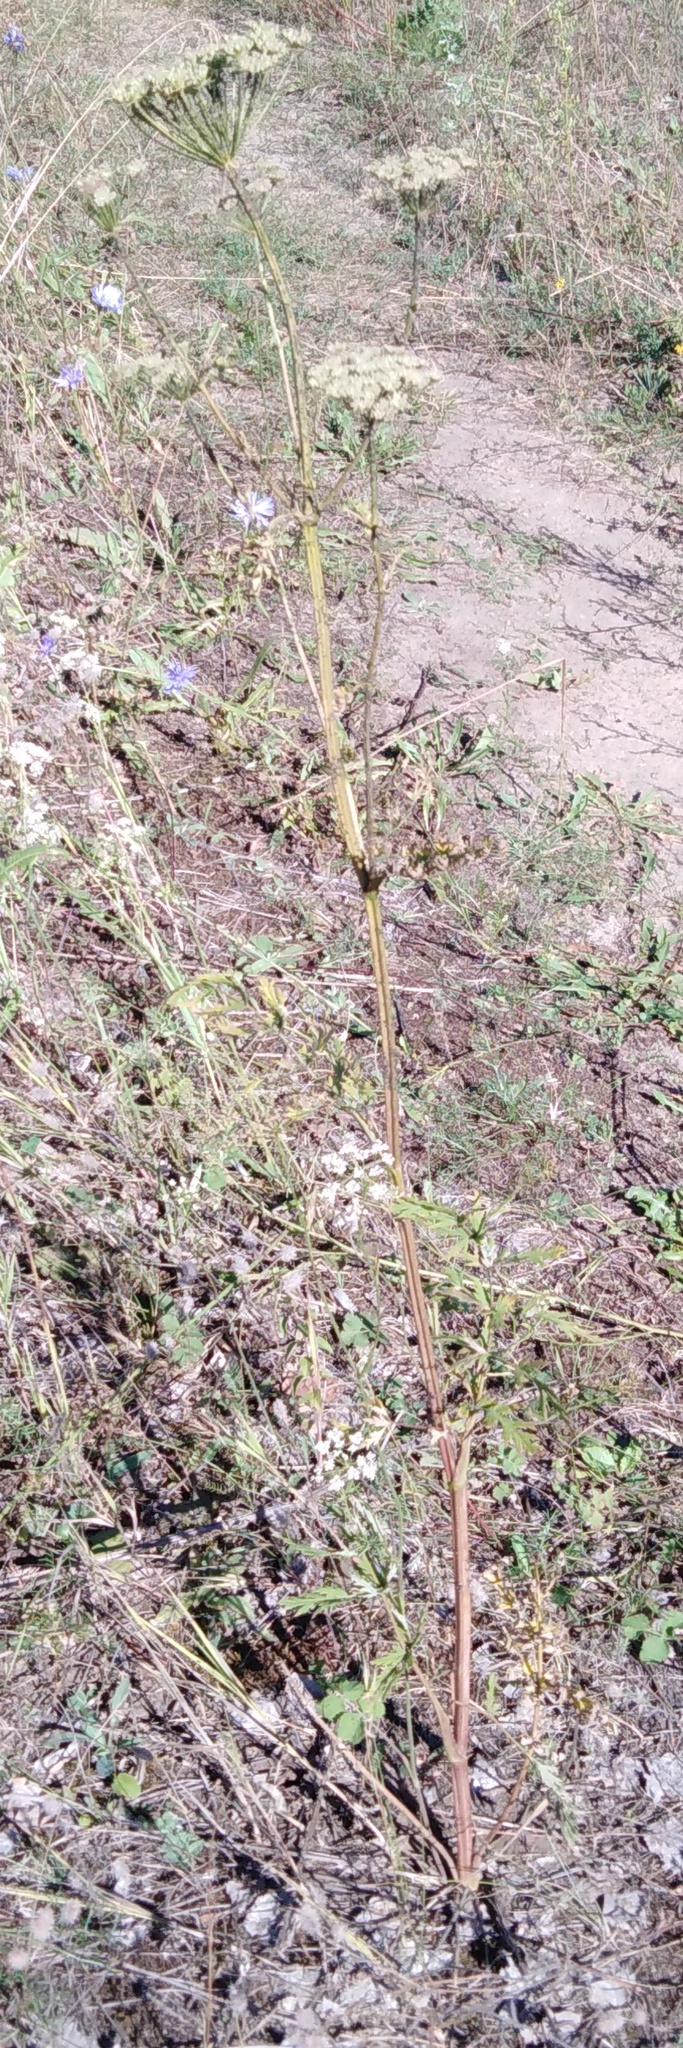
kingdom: Plantae
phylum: Tracheophyta
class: Magnoliopsida
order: Apiales
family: Apiaceae
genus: Pimpinella
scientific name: Pimpinella saxifraga
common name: Burnet-saxifrage
